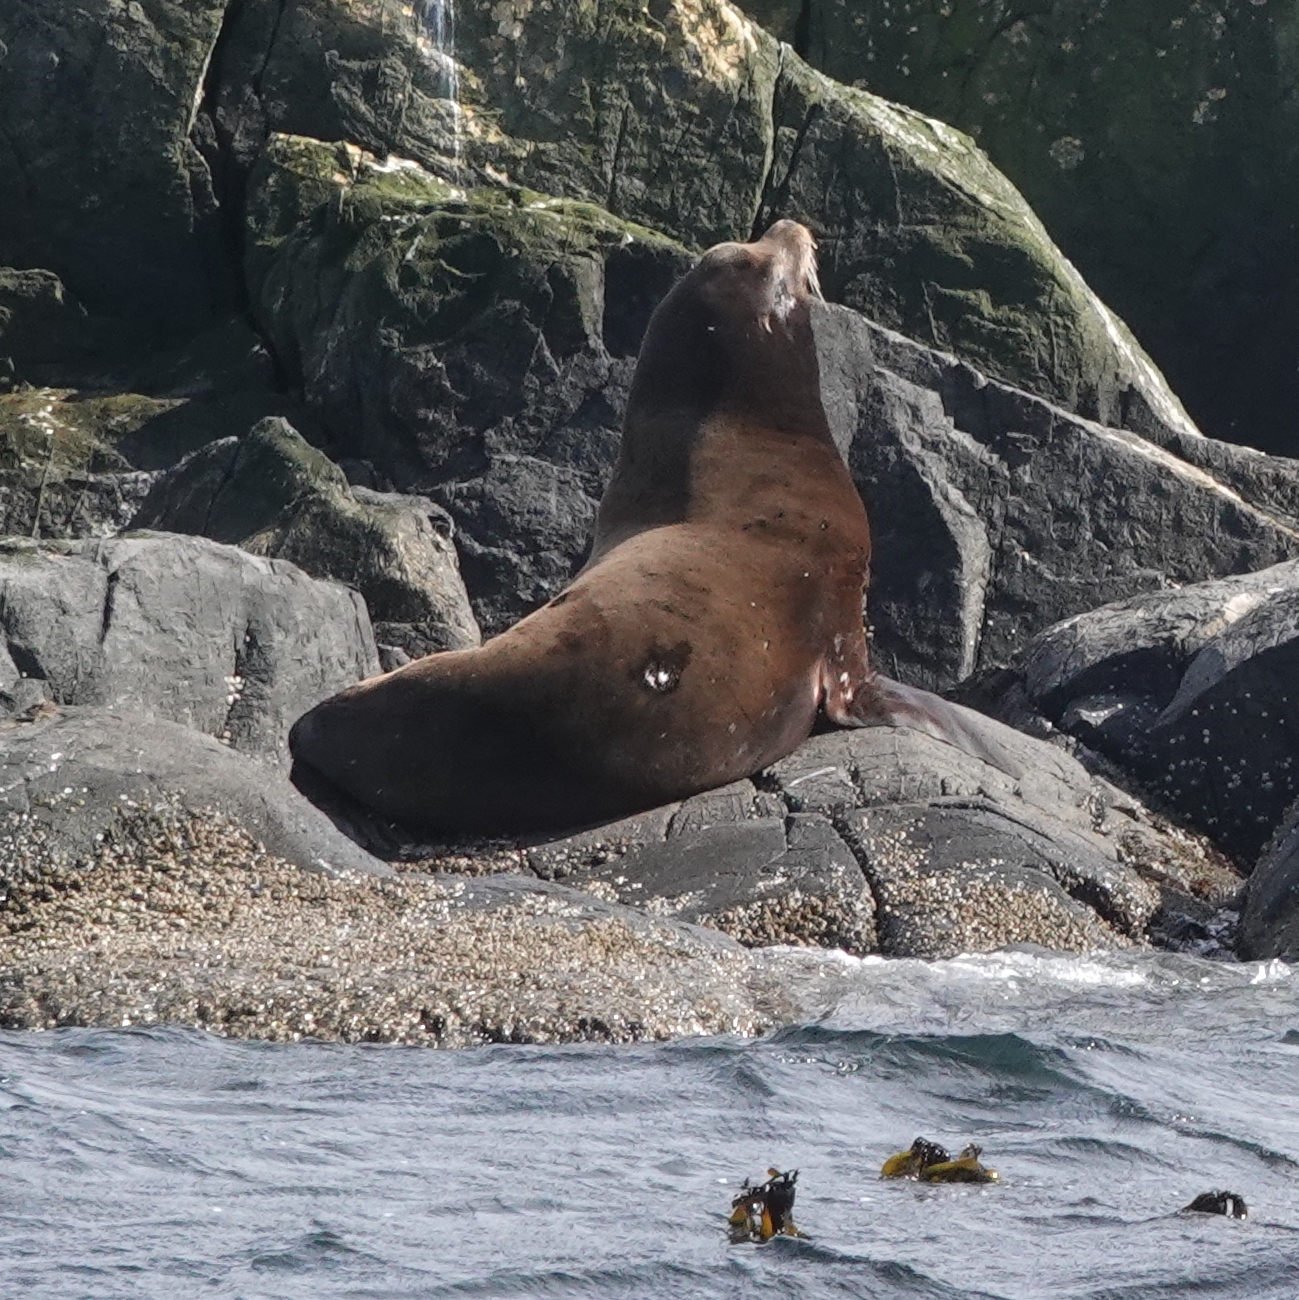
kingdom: Animalia
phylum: Chordata
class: Mammalia
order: Carnivora
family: Otariidae
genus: Zalophus
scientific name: Zalophus californianus
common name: California sea lion
